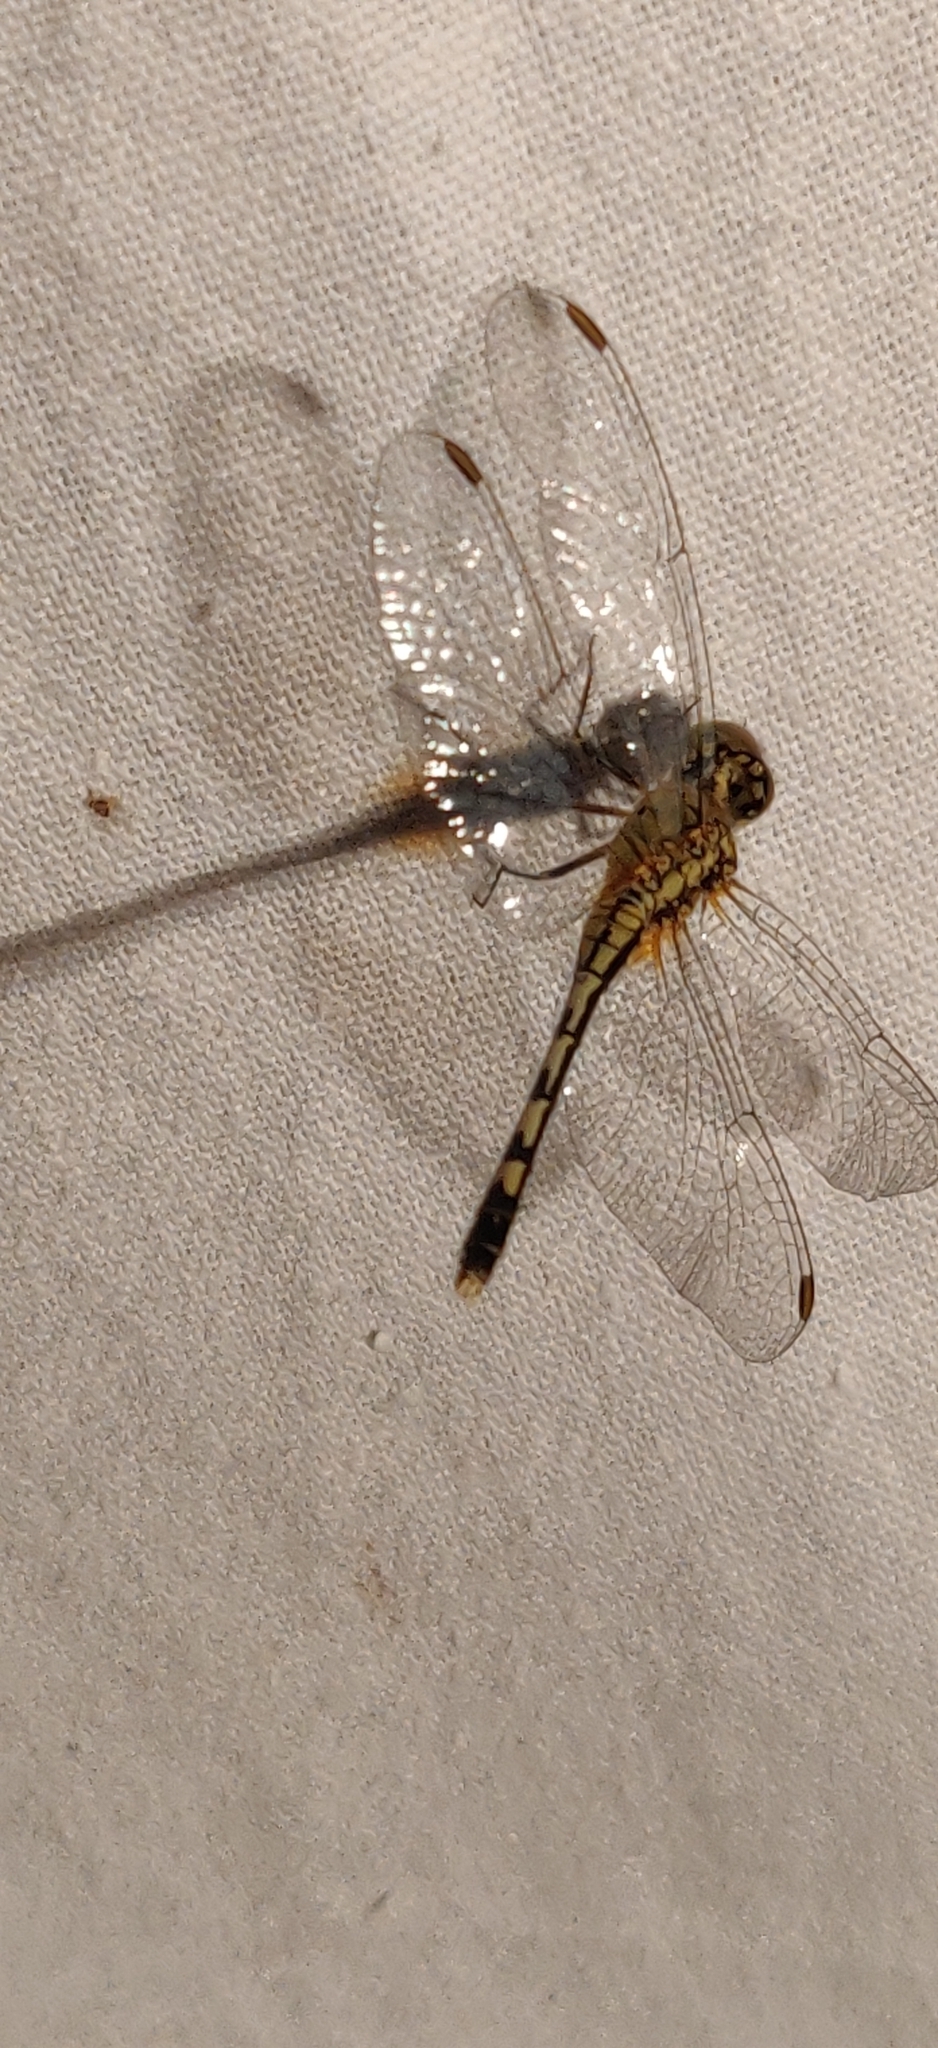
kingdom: Animalia
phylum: Arthropoda
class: Insecta
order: Odonata
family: Libellulidae
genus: Diplacodes
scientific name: Diplacodes trivialis
